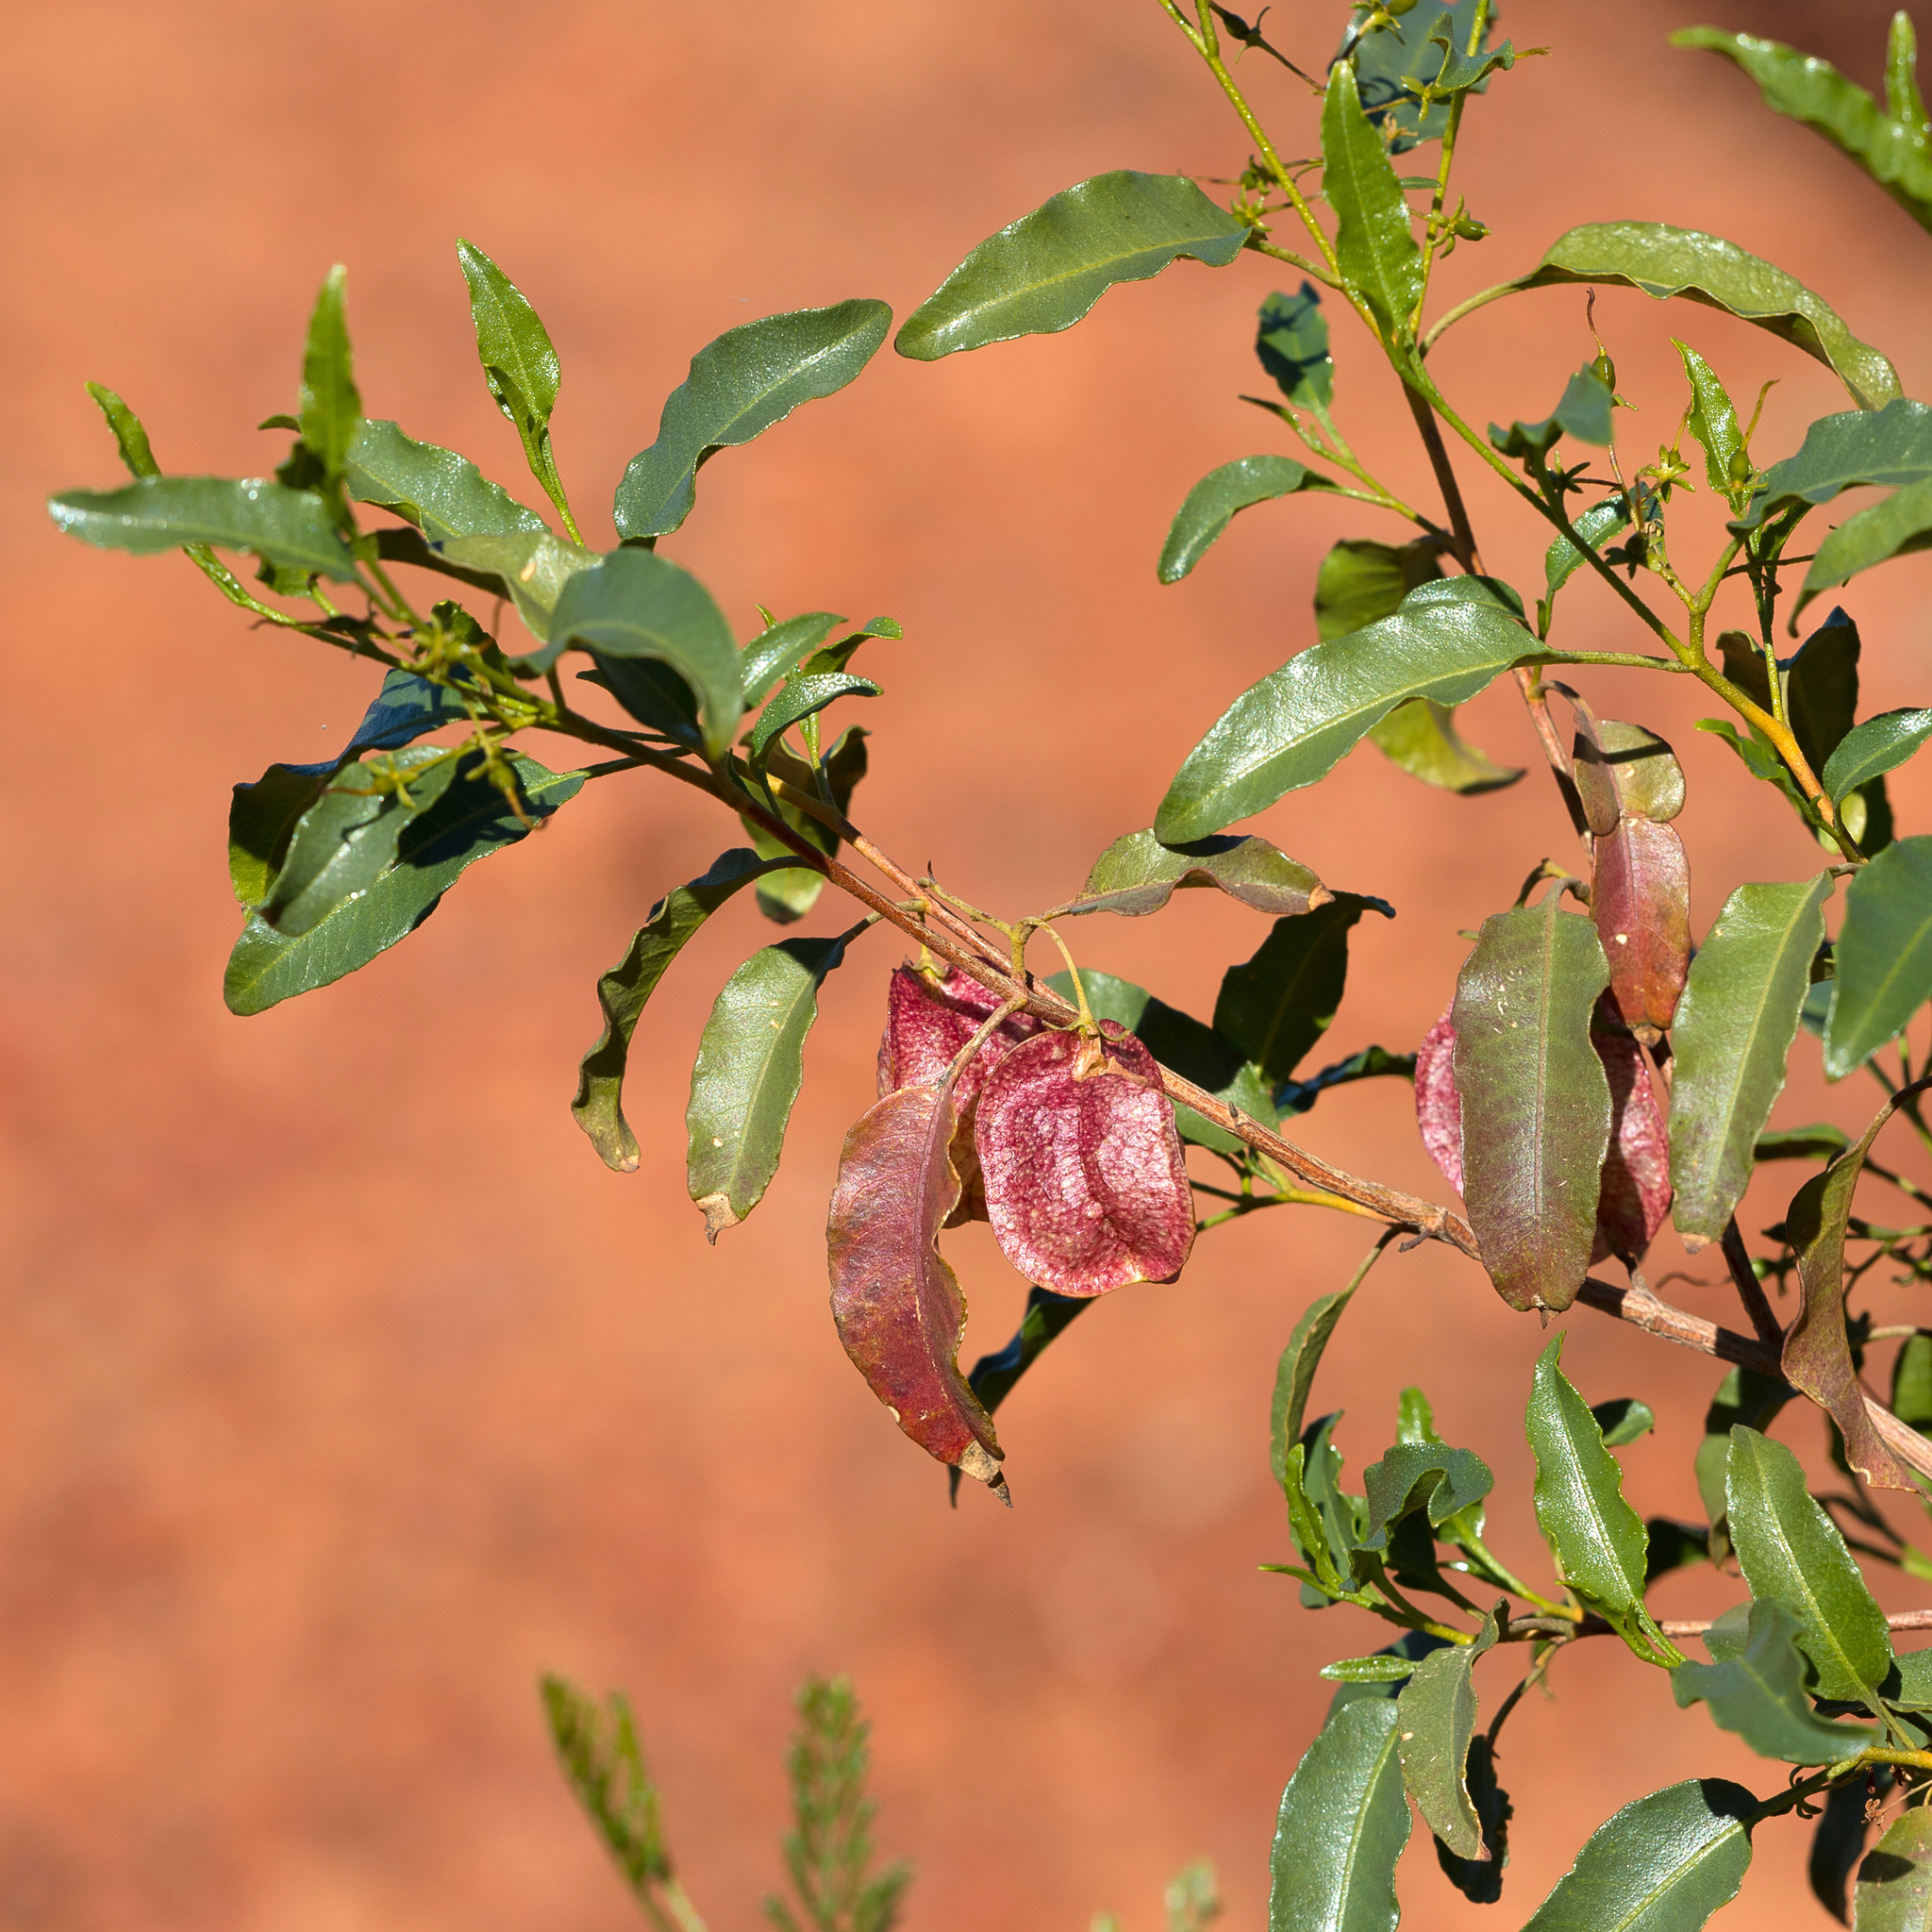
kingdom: Plantae
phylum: Tracheophyta
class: Magnoliopsida
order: Sapindales
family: Sapindaceae
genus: Dodonaea
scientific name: Dodonaea petiolaris
